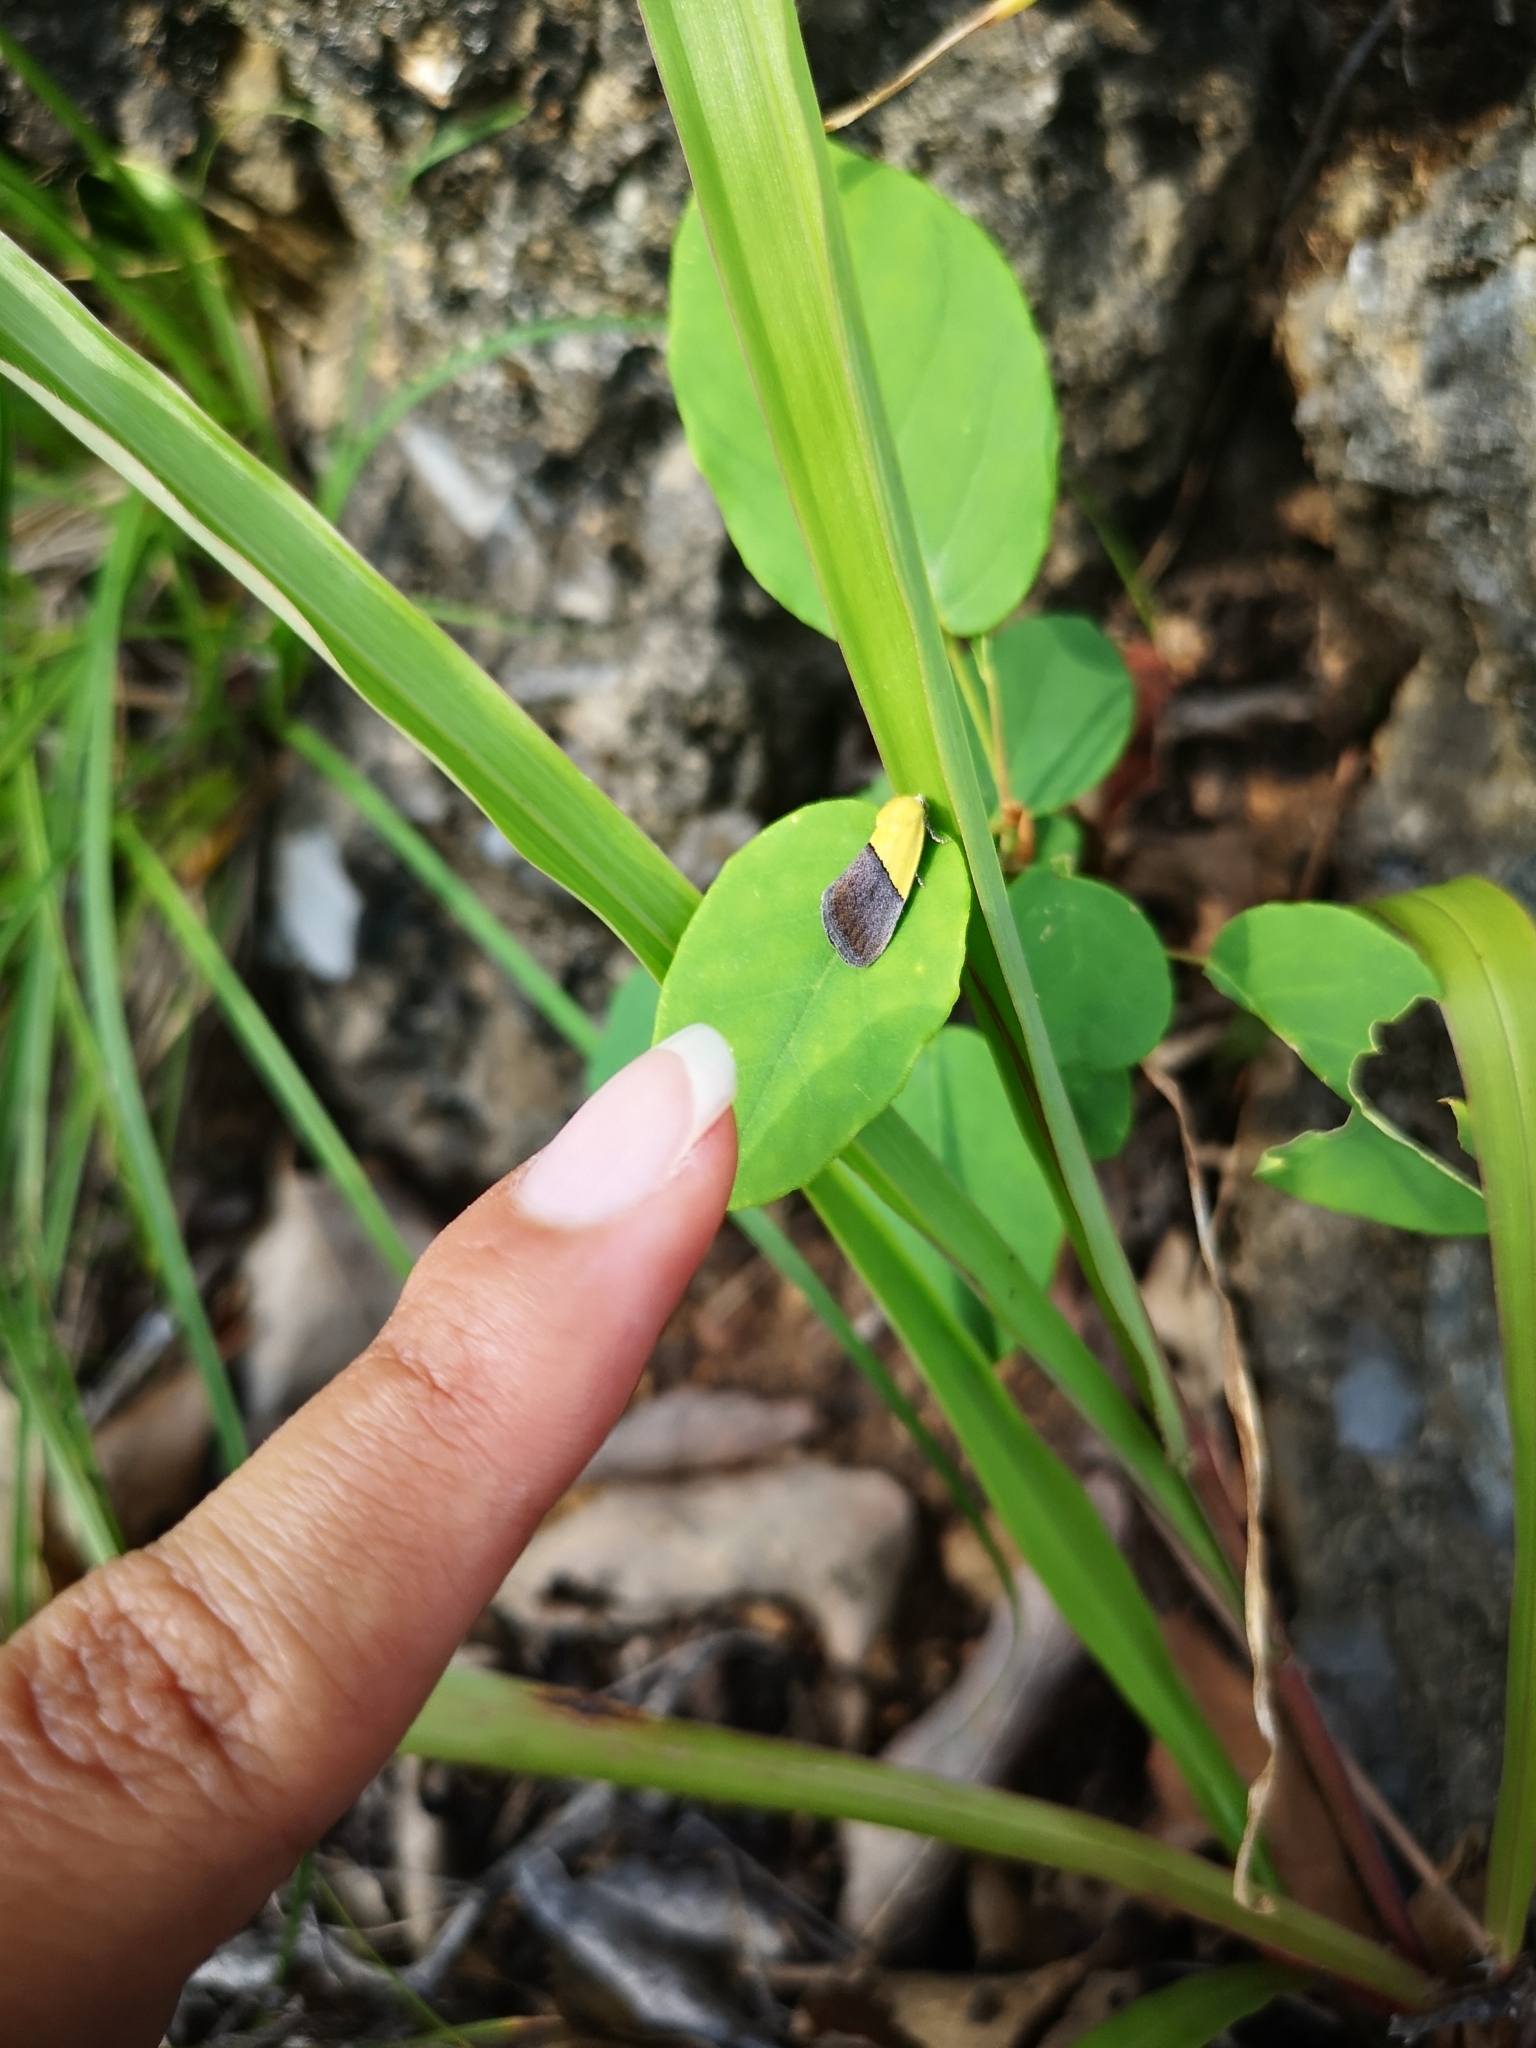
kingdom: Animalia
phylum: Arthropoda
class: Insecta
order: Lepidoptera
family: Noctuidae
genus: Acontia
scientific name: Acontia semiflava
